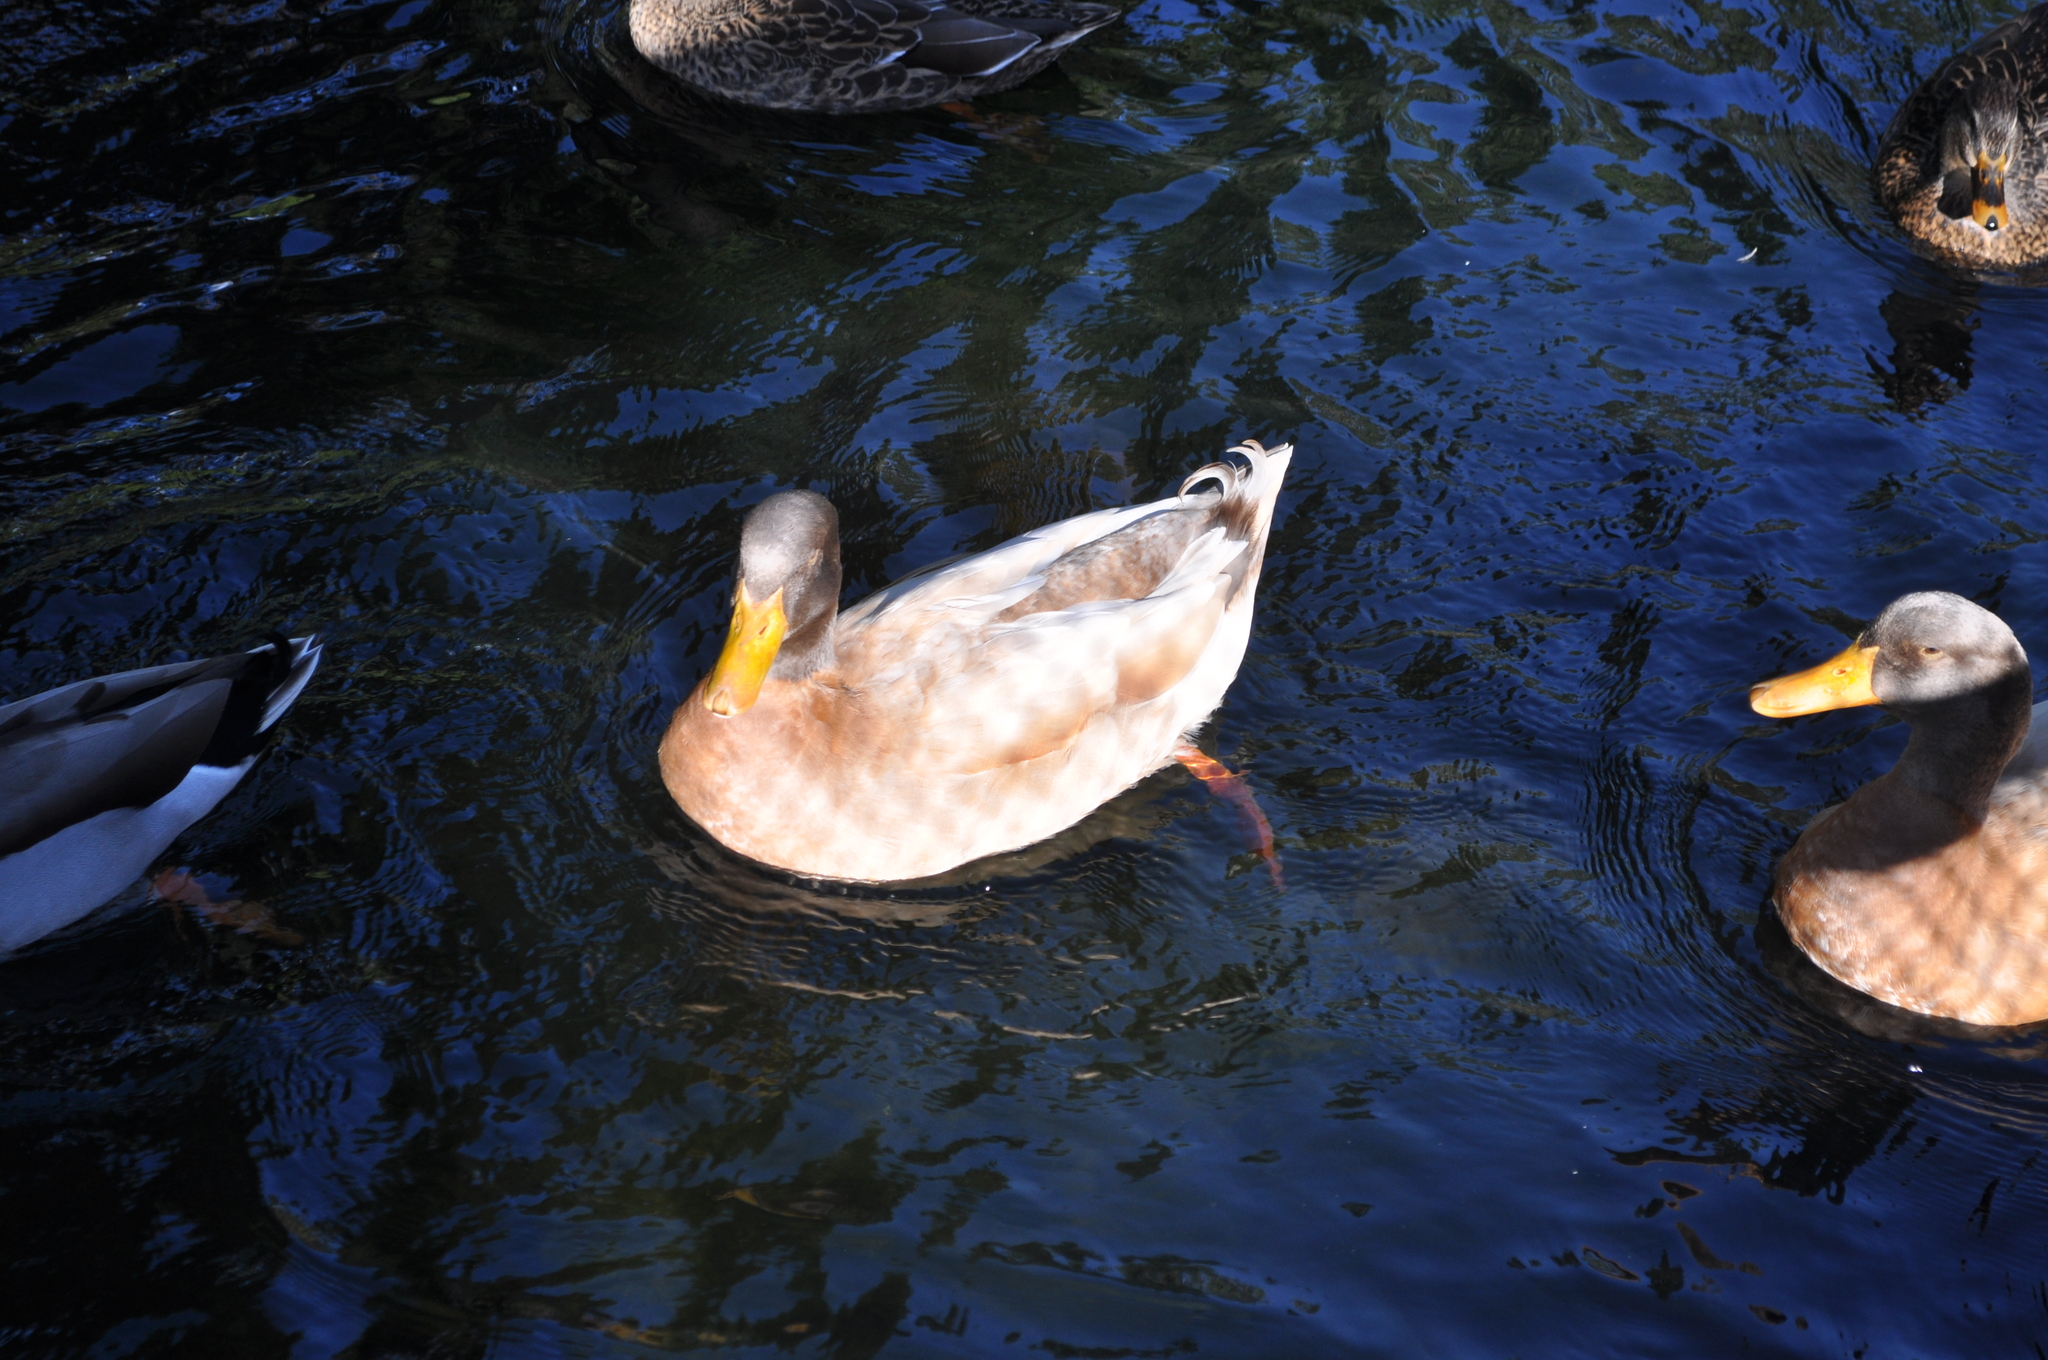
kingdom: Animalia
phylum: Chordata
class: Aves
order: Anseriformes
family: Anatidae
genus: Anas
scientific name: Anas platyrhynchos
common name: Mallard
